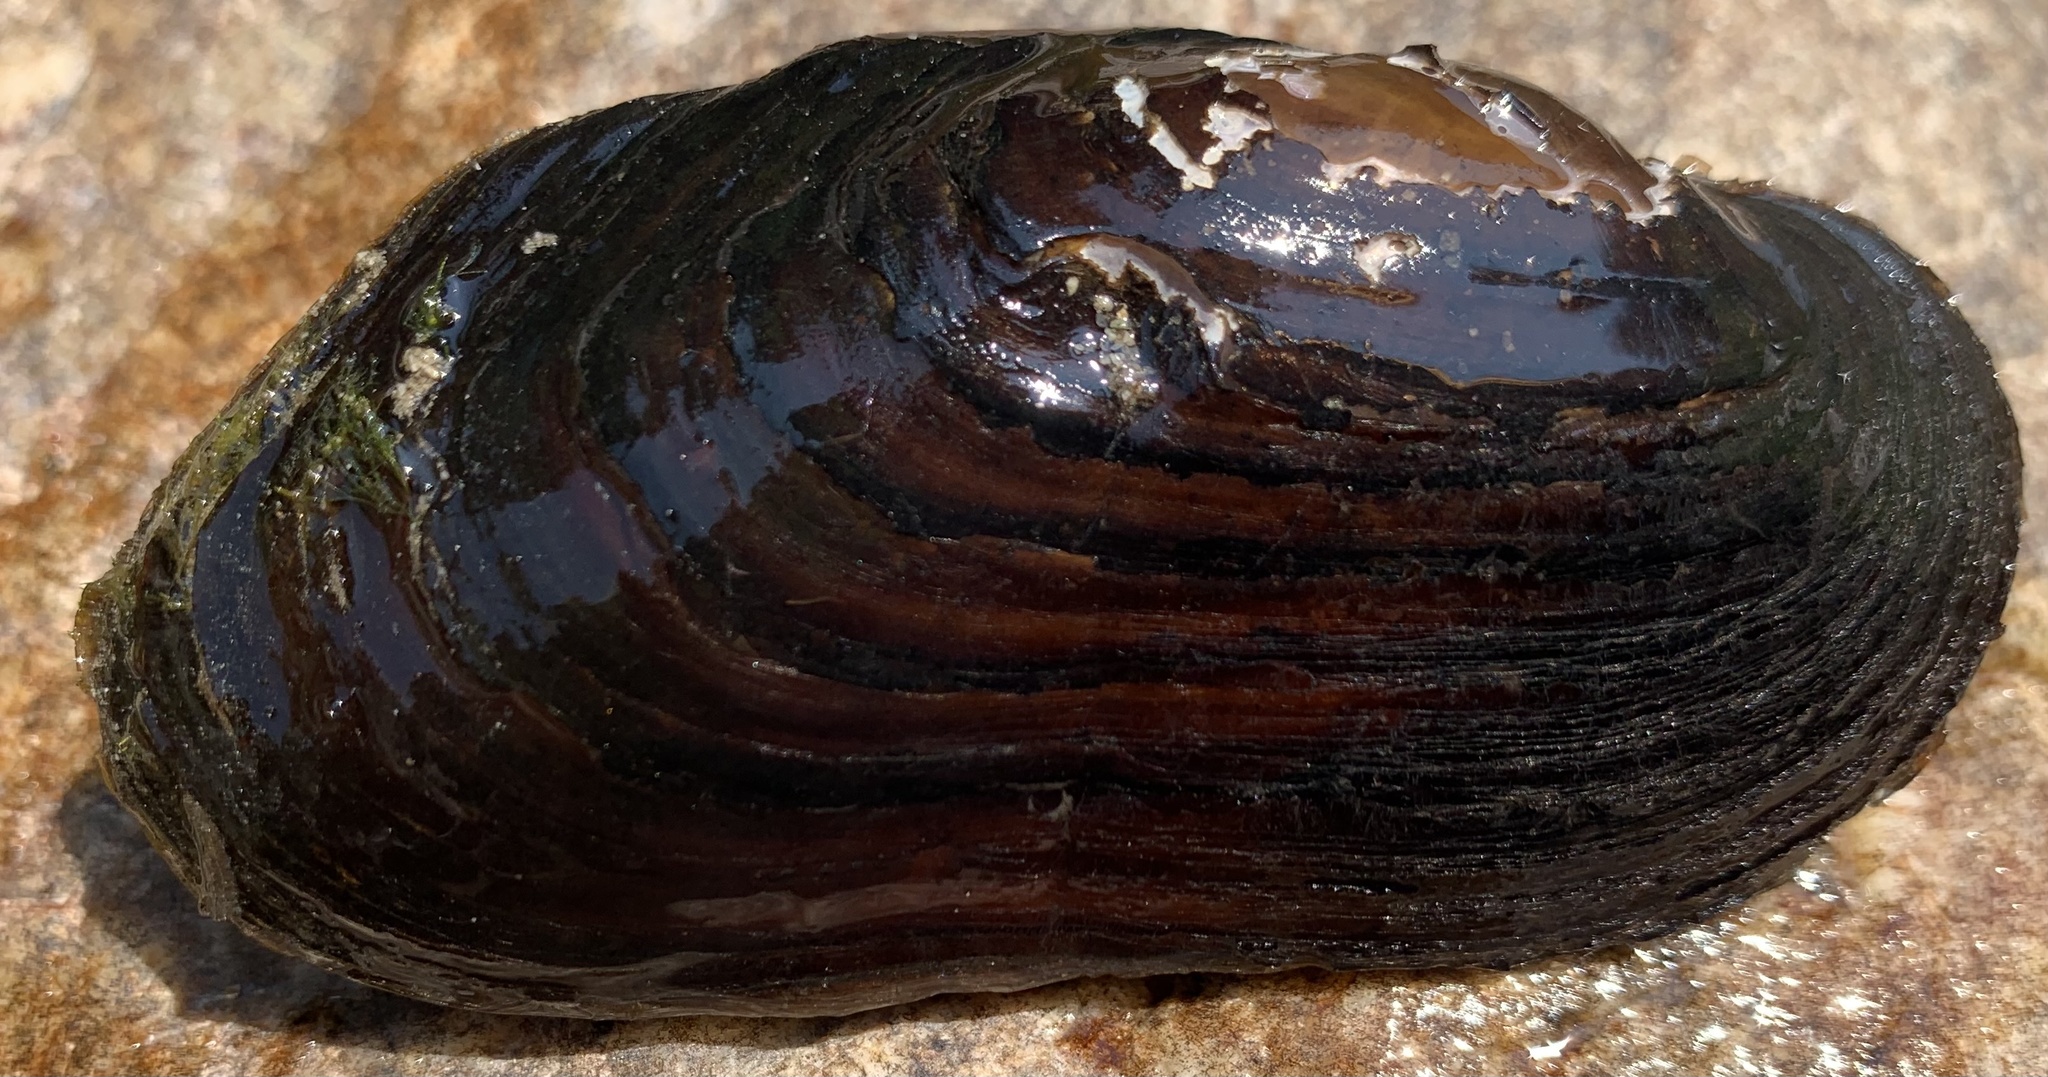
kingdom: Animalia
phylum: Mollusca
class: Bivalvia
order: Unionida
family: Margaritiferidae
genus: Margaritifera
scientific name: Margaritifera falcata
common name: Western pearlshell
